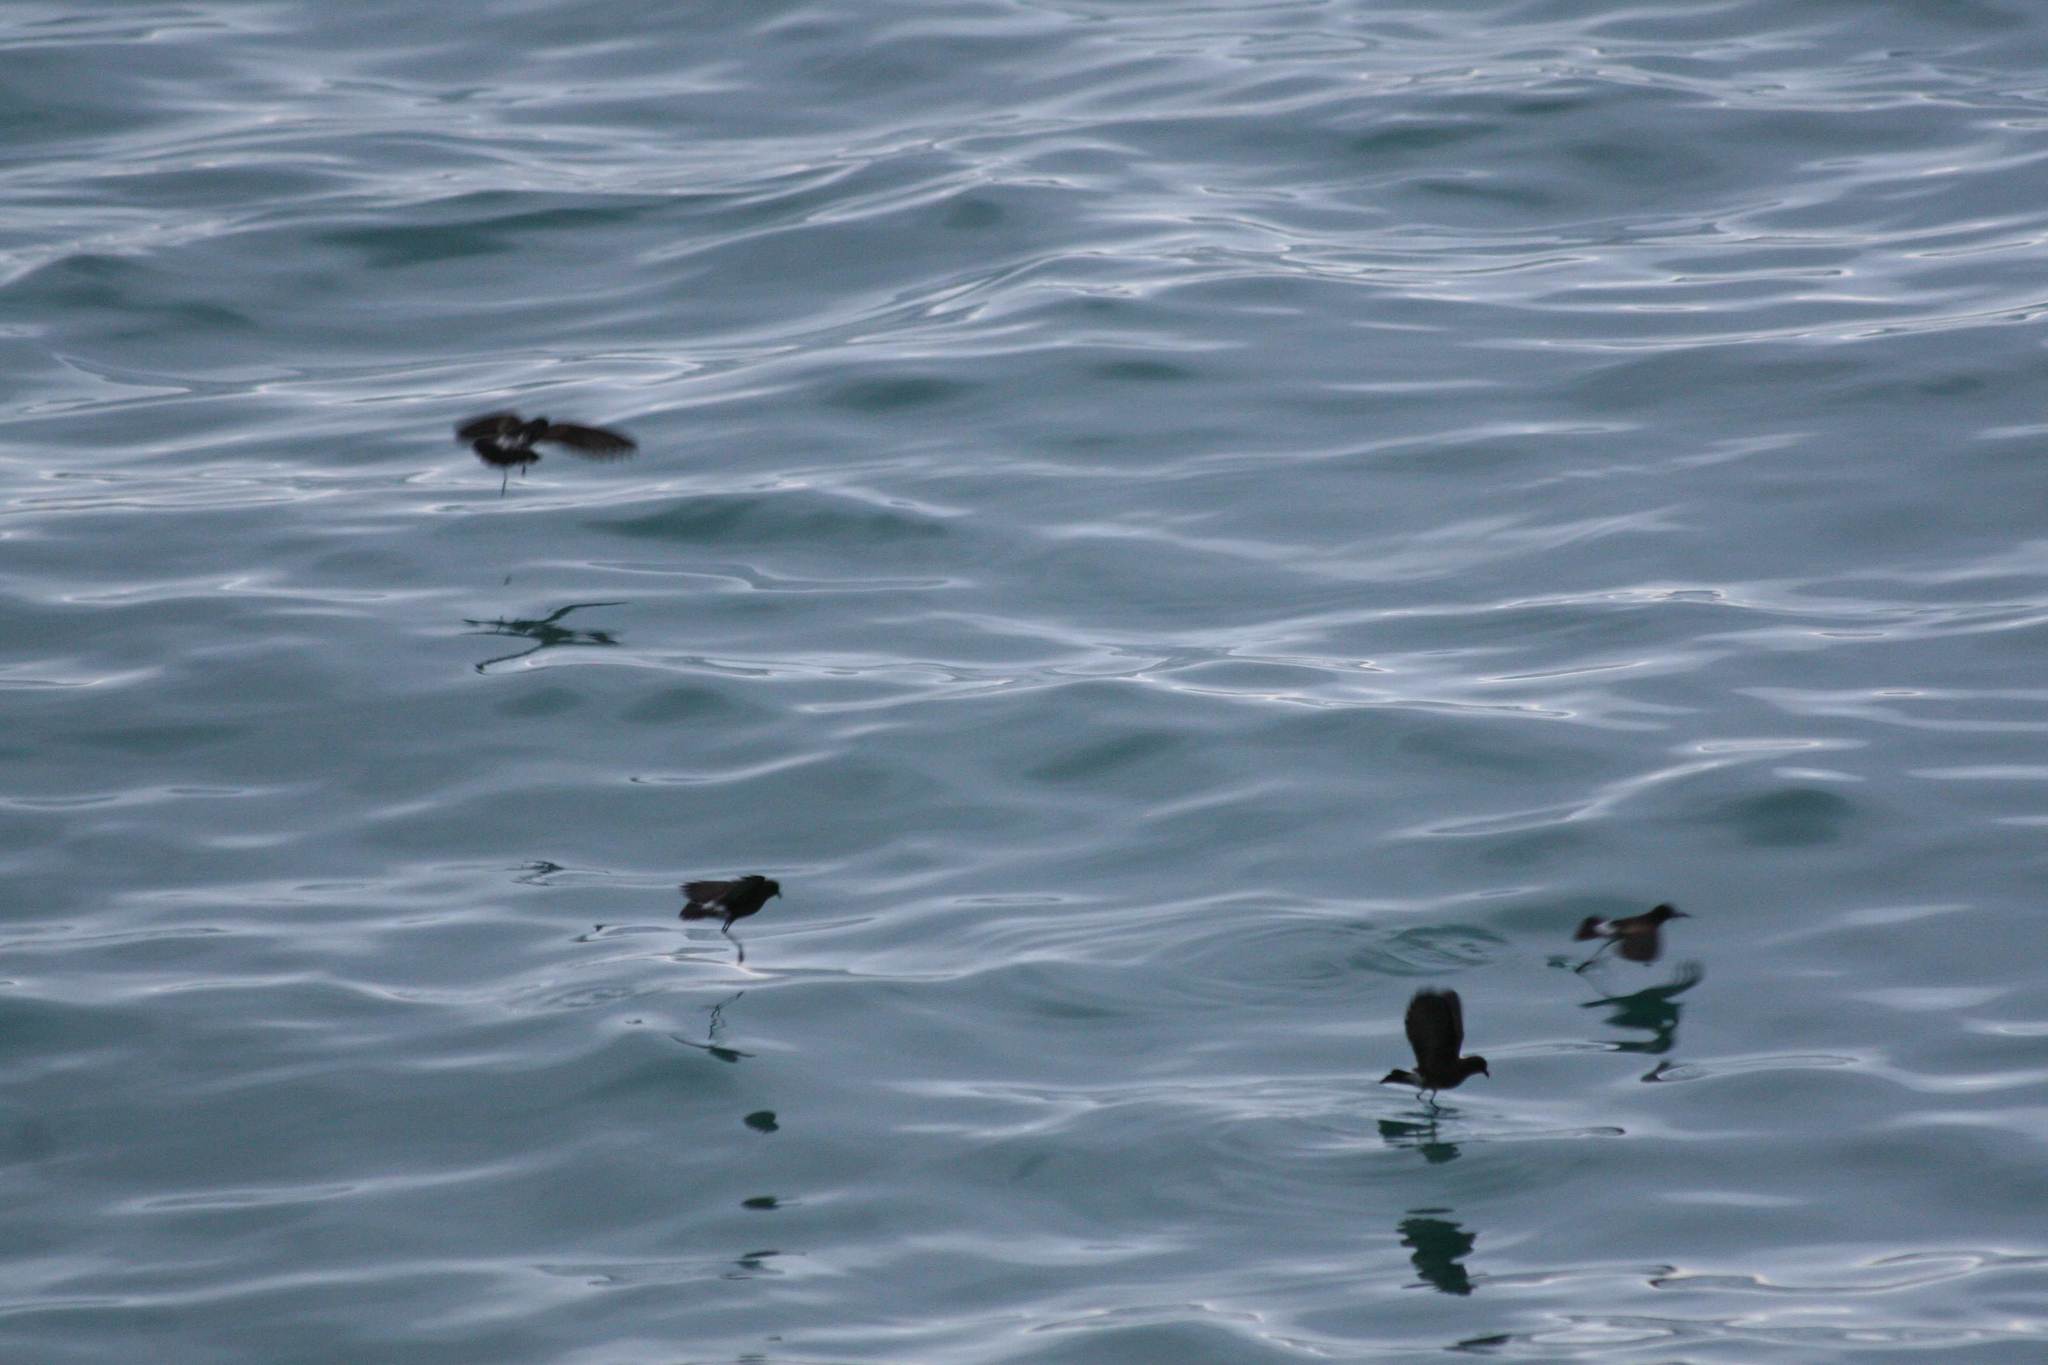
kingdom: Animalia
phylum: Chordata
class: Aves
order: Procellariiformes
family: Hydrobatidae
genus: Oceanites
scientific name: Oceanites gracilis
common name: Elliot's storm-petrel
